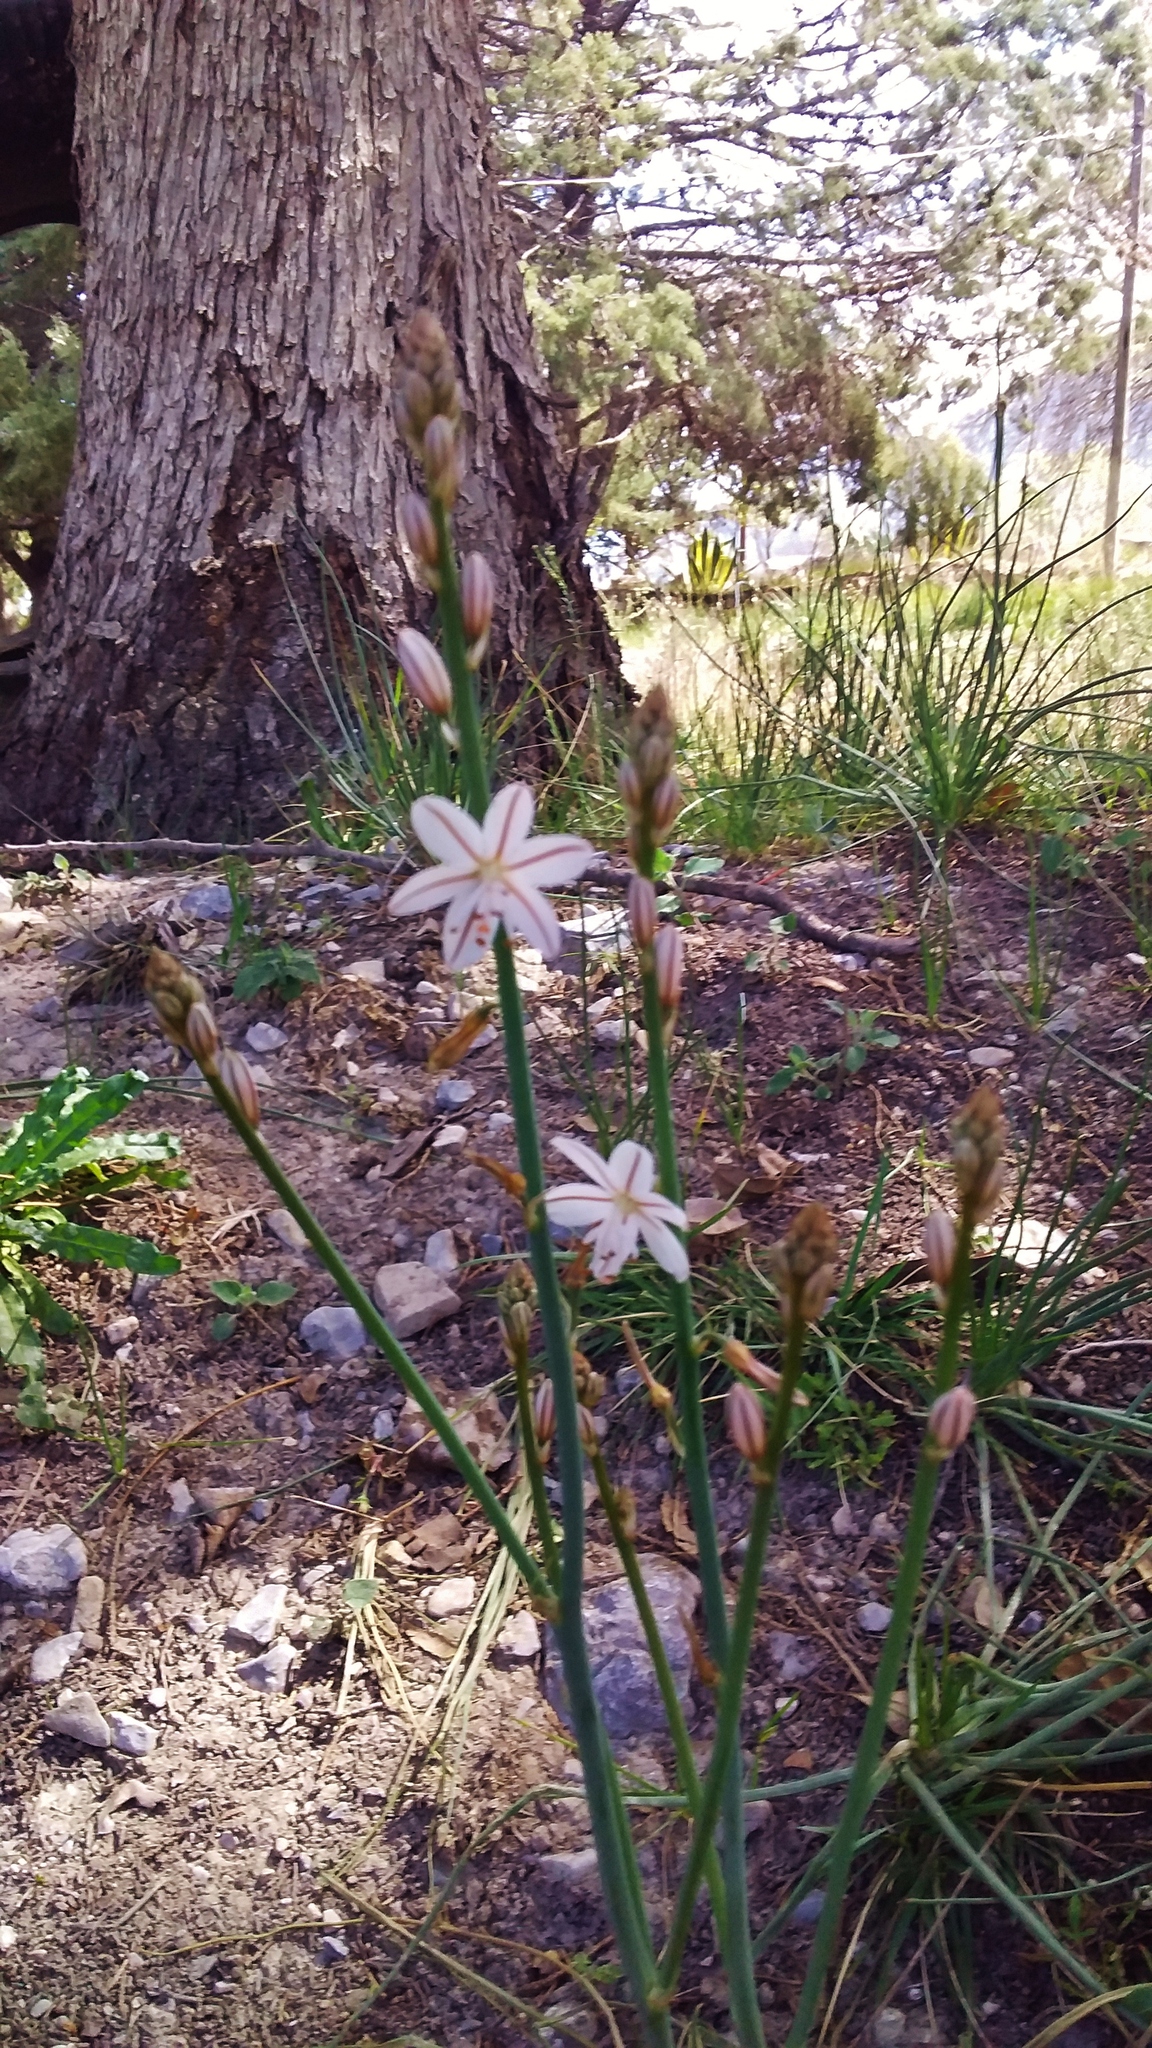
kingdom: Plantae
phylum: Tracheophyta
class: Liliopsida
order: Asparagales
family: Asphodelaceae
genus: Asphodelus
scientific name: Asphodelus fistulosus
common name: Onionweed
